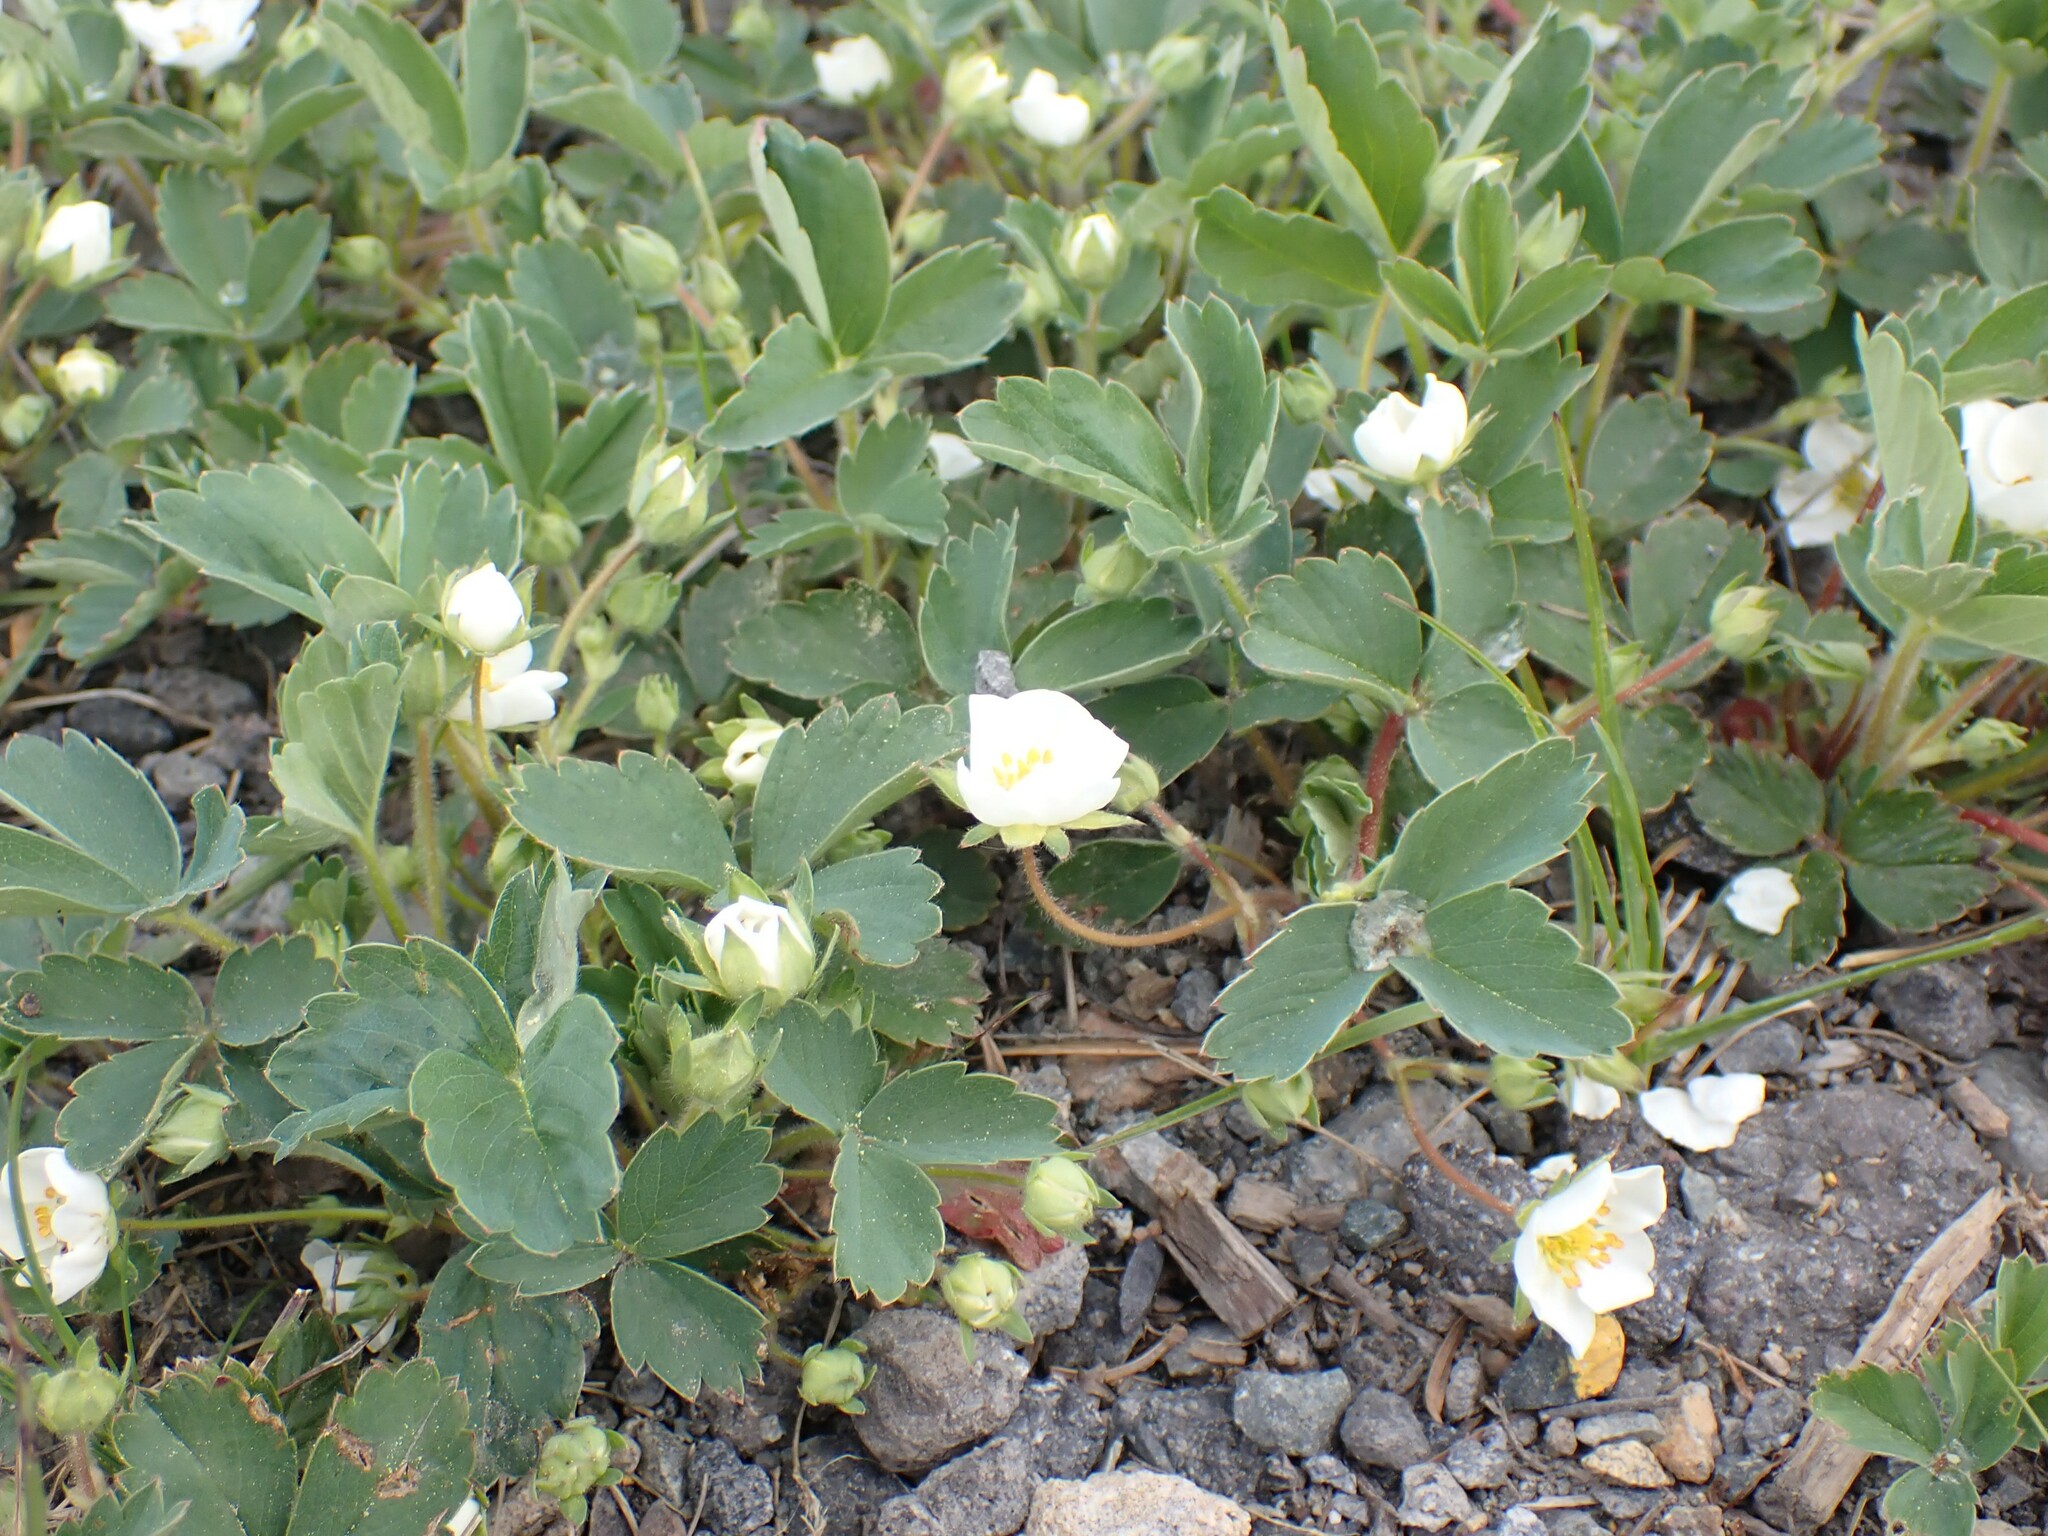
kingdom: Plantae
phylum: Tracheophyta
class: Magnoliopsida
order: Rosales
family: Rosaceae
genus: Fragaria
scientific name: Fragaria virginiana
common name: Thickleaved wild strawberry
